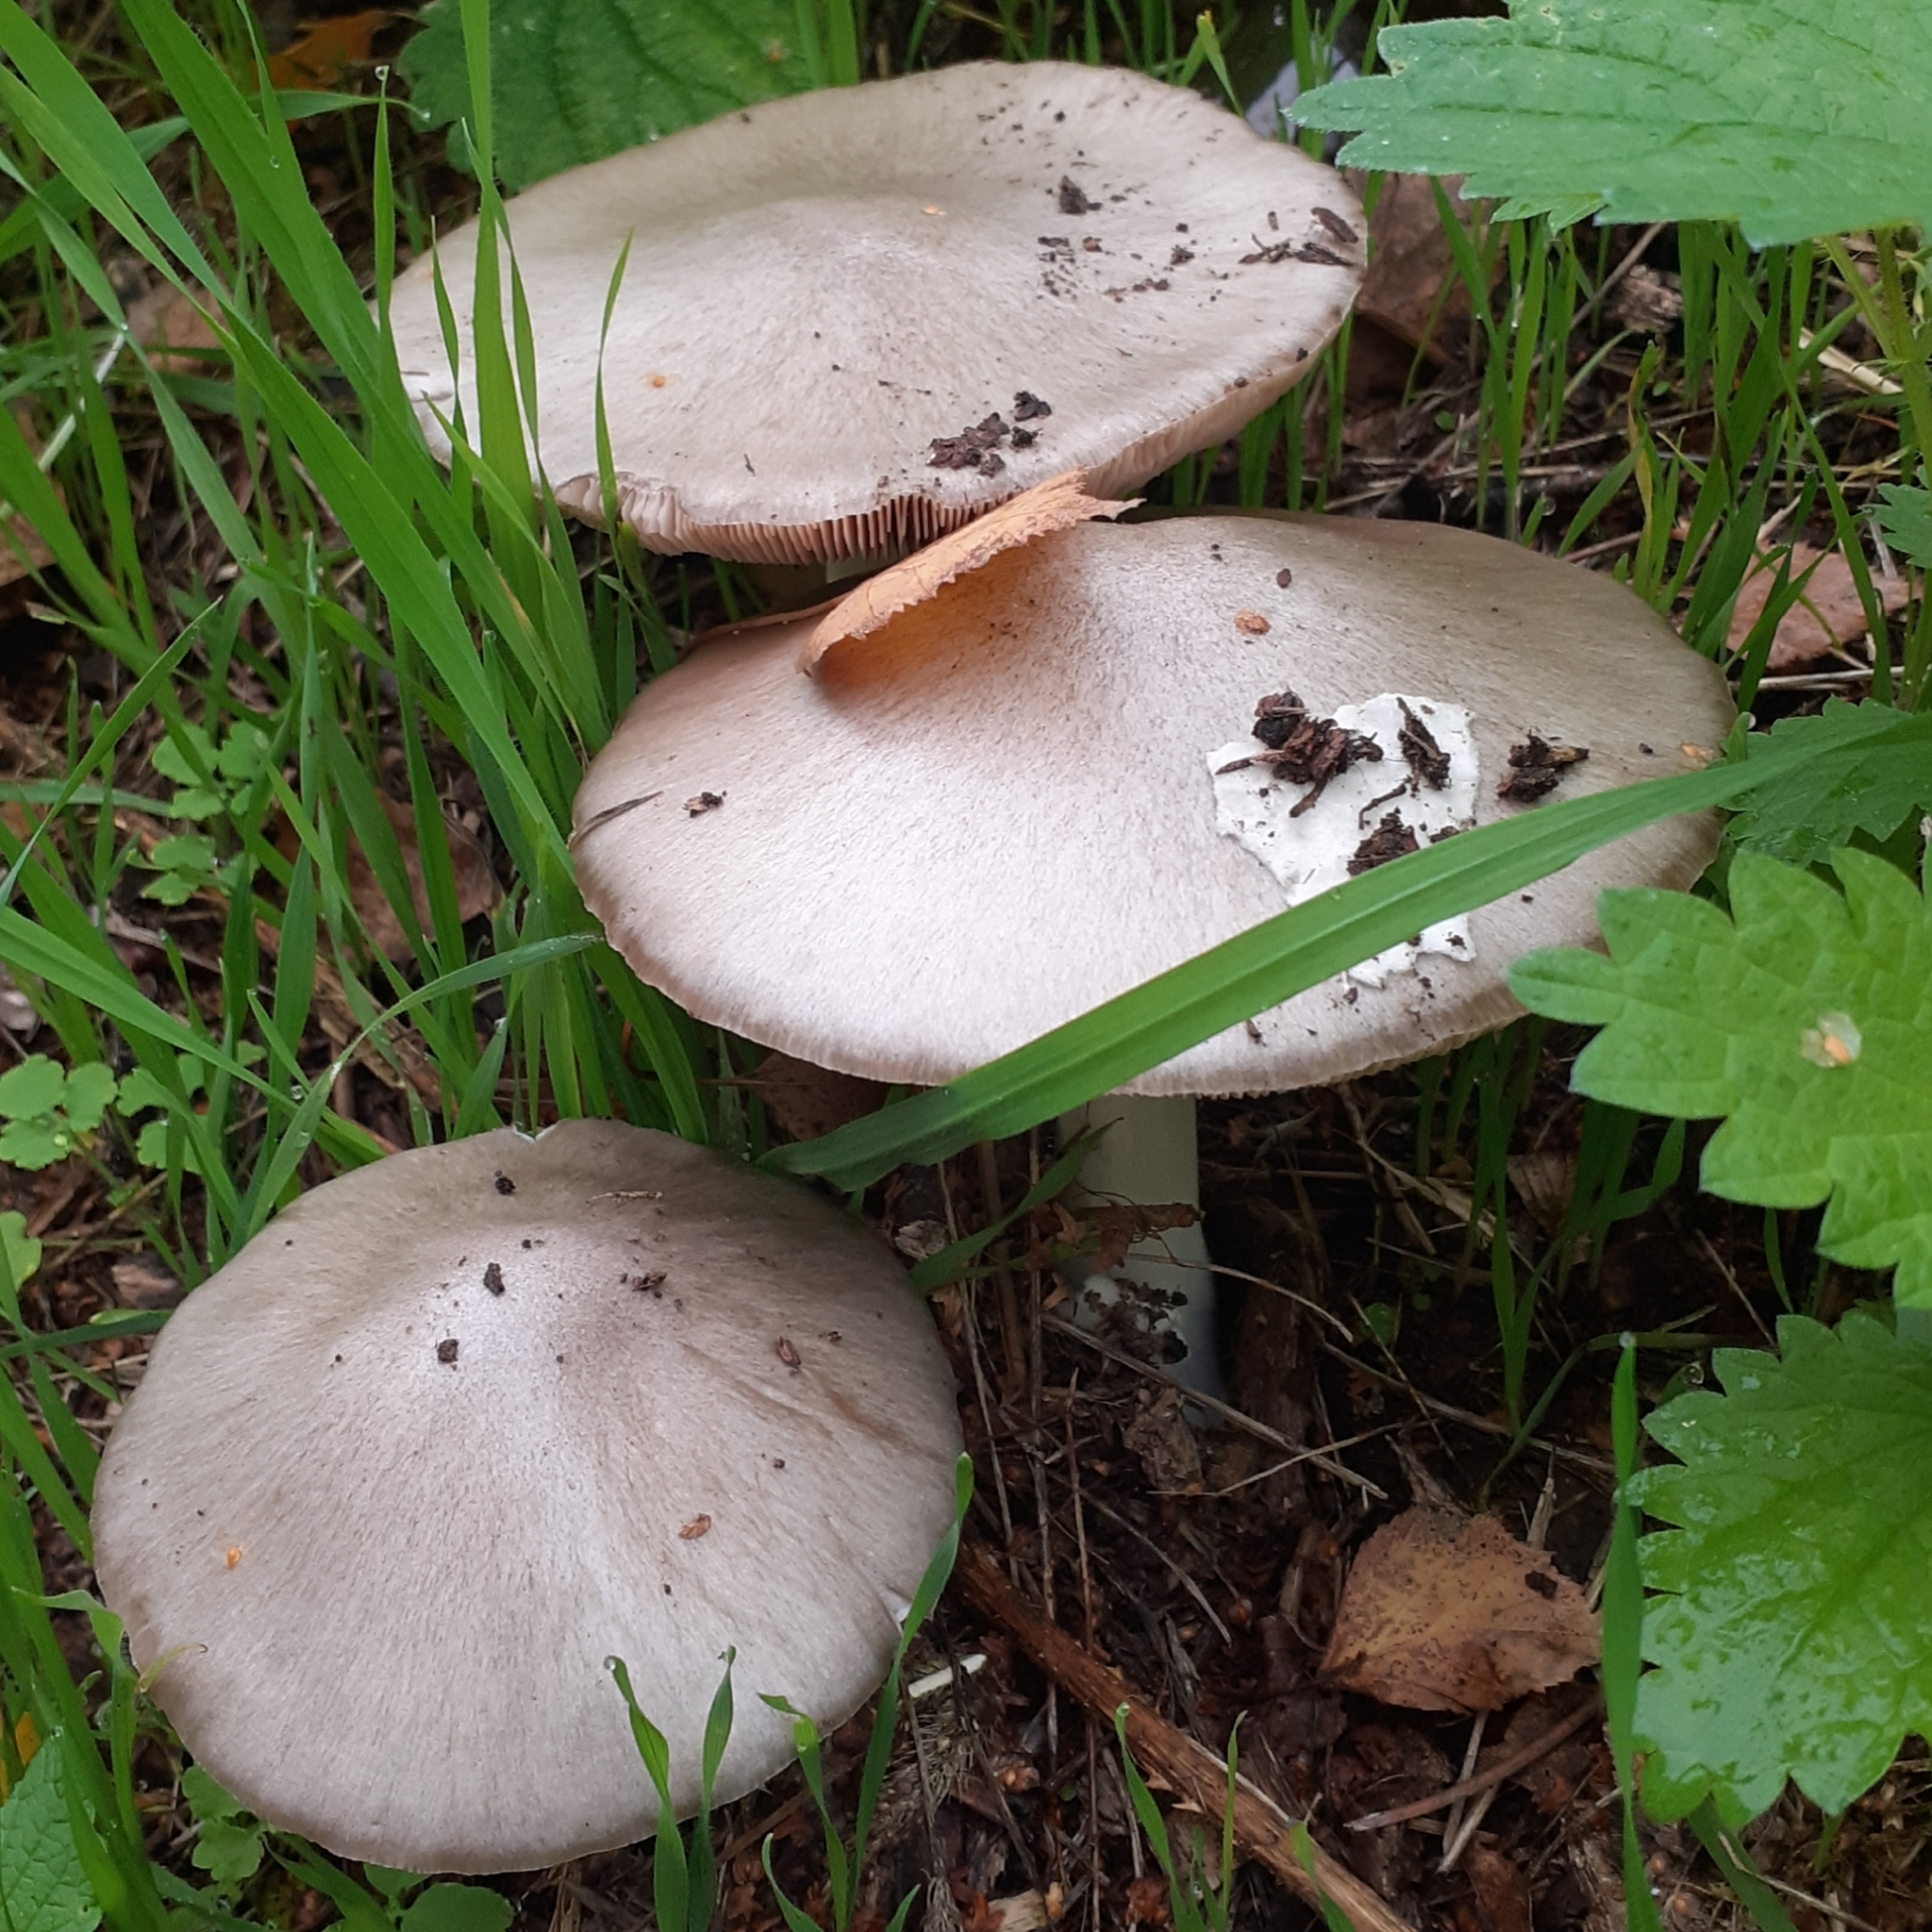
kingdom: Fungi
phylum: Basidiomycota
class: Agaricomycetes
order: Agaricales
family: Pluteaceae
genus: Volvopluteus
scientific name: Volvopluteus gloiocephalus
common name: Stubble rosegill
